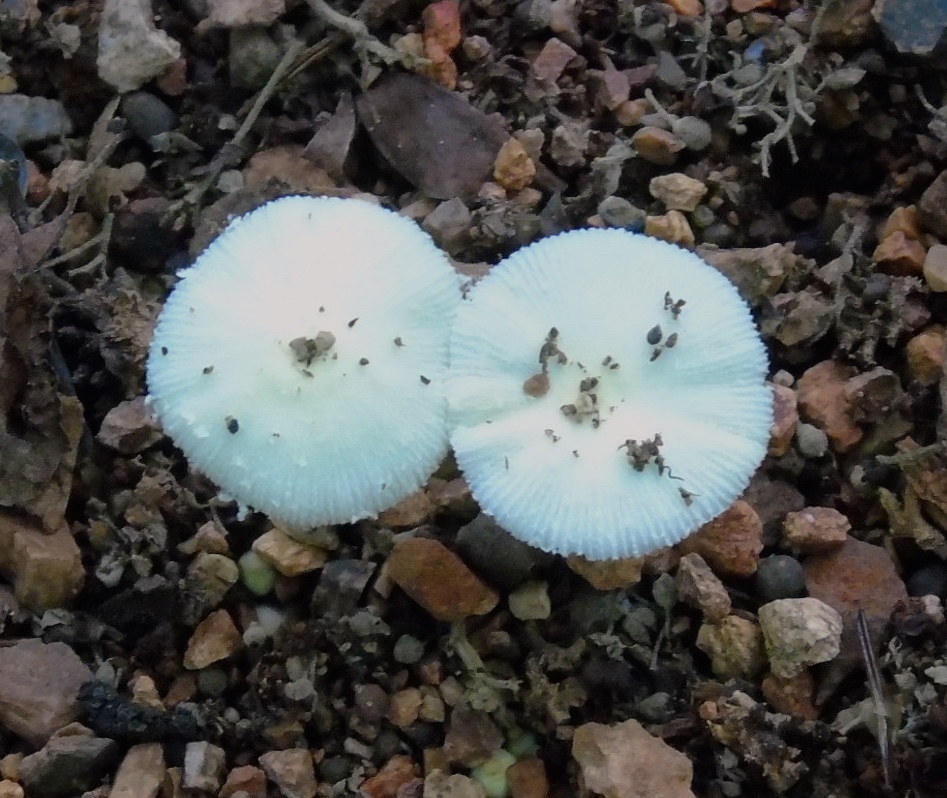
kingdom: Fungi
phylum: Basidiomycota
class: Agaricomycetes
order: Agaricales
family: Agaricaceae
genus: Leucocoprinus
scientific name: Leucocoprinus
